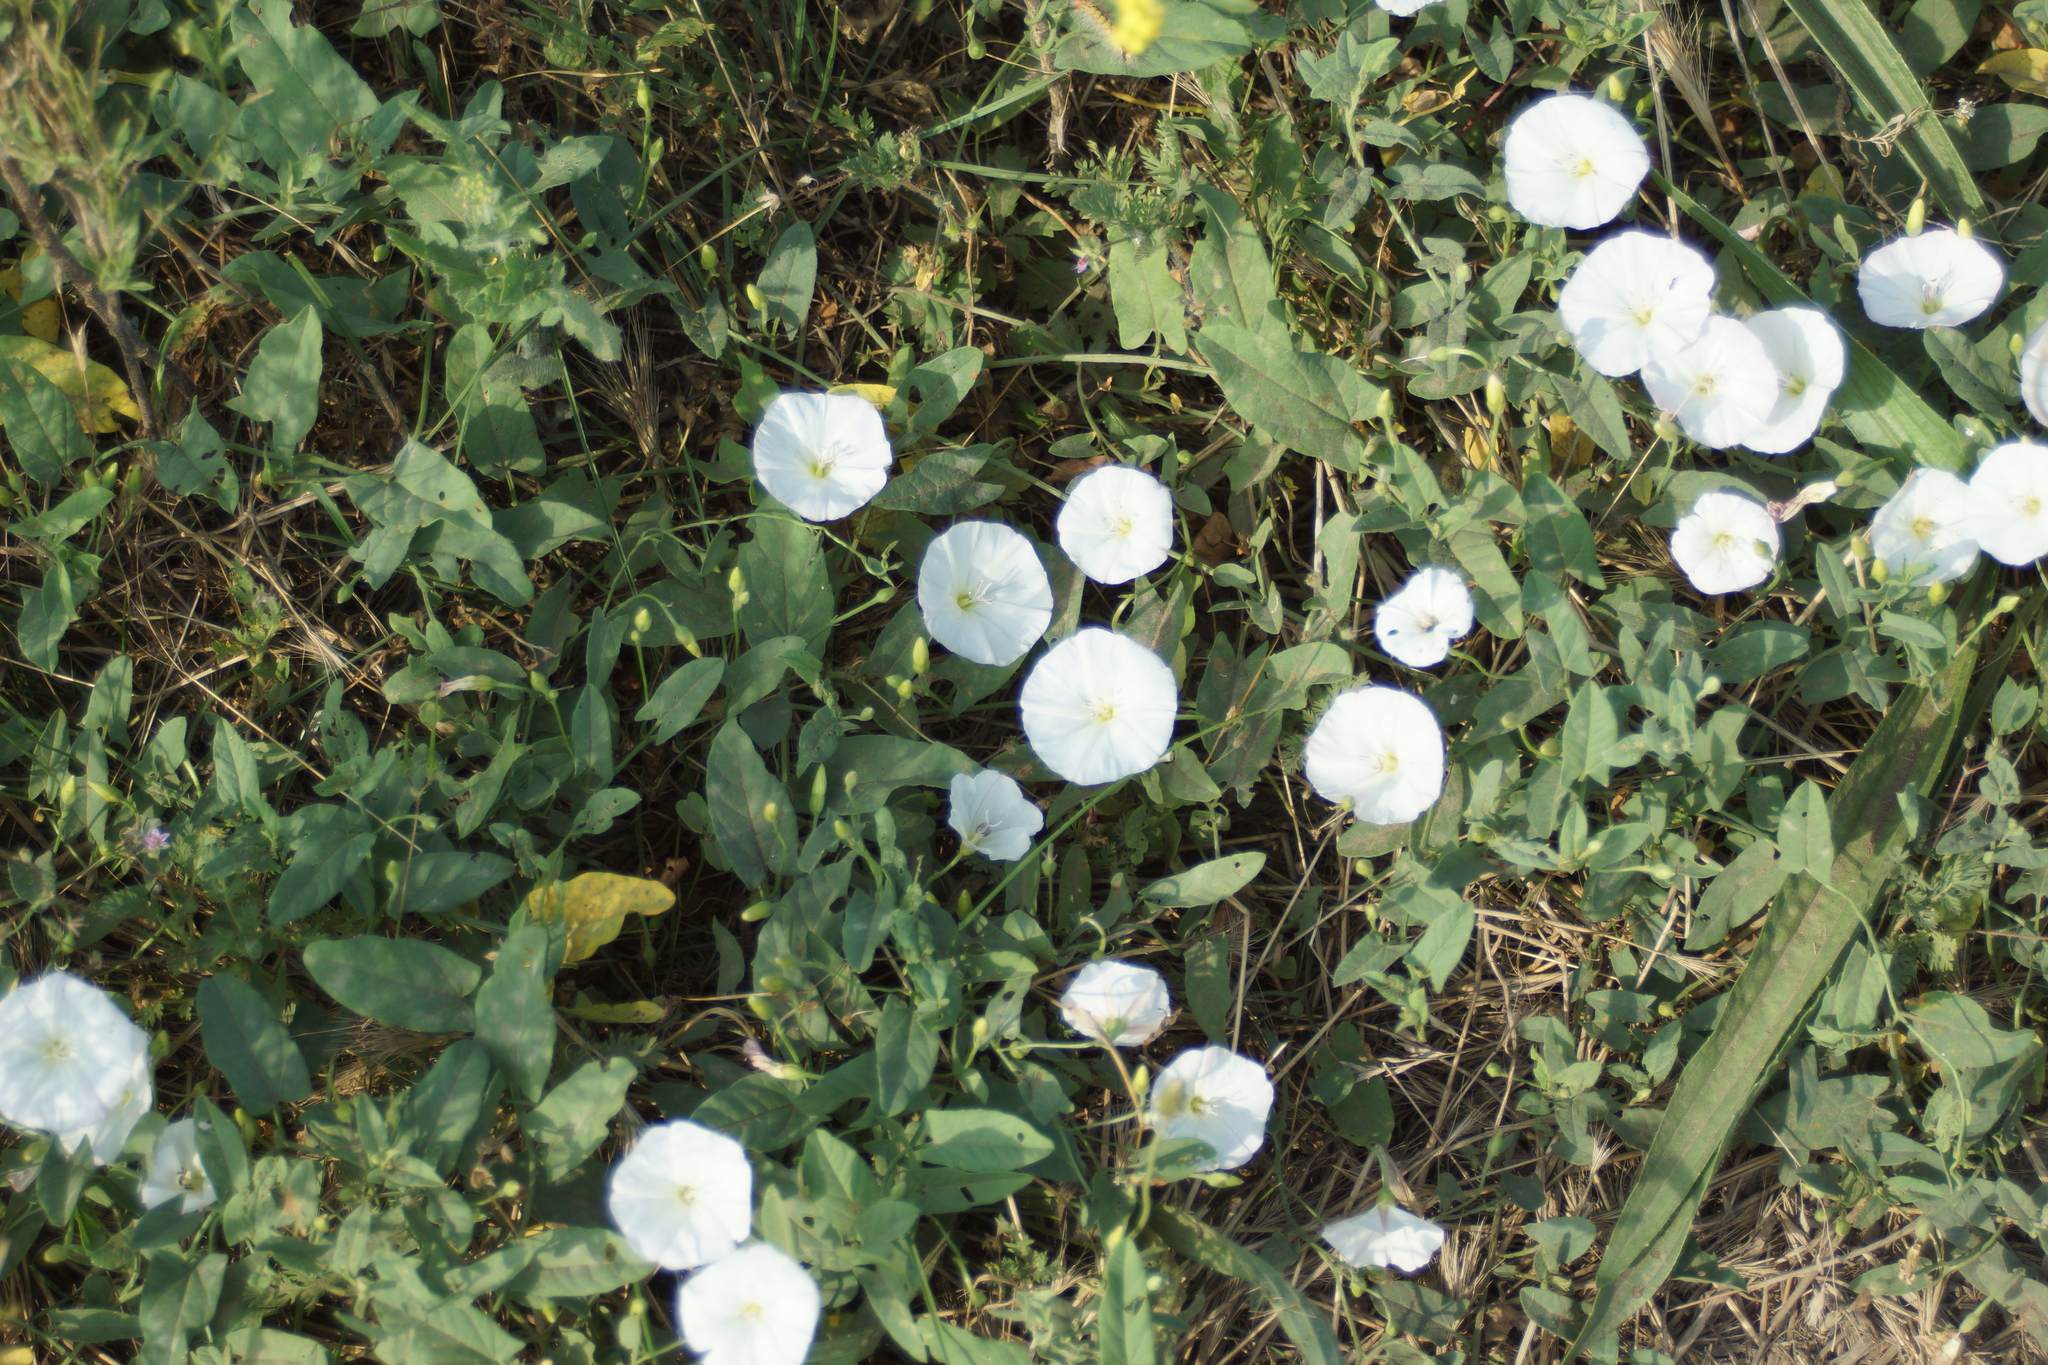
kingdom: Plantae
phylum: Tracheophyta
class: Magnoliopsida
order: Solanales
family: Convolvulaceae
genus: Convolvulus
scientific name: Convolvulus arvensis
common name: Field bindweed
